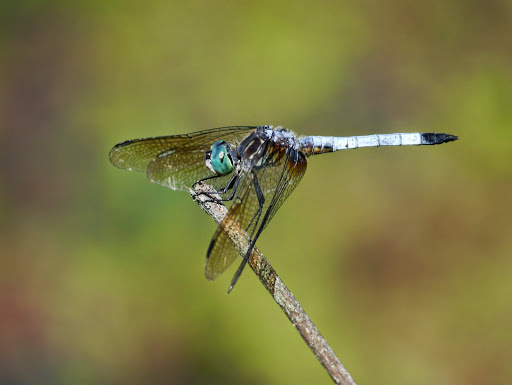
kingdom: Animalia
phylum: Arthropoda
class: Insecta
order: Odonata
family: Libellulidae
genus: Pachydiplax
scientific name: Pachydiplax longipennis
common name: Blue dasher
